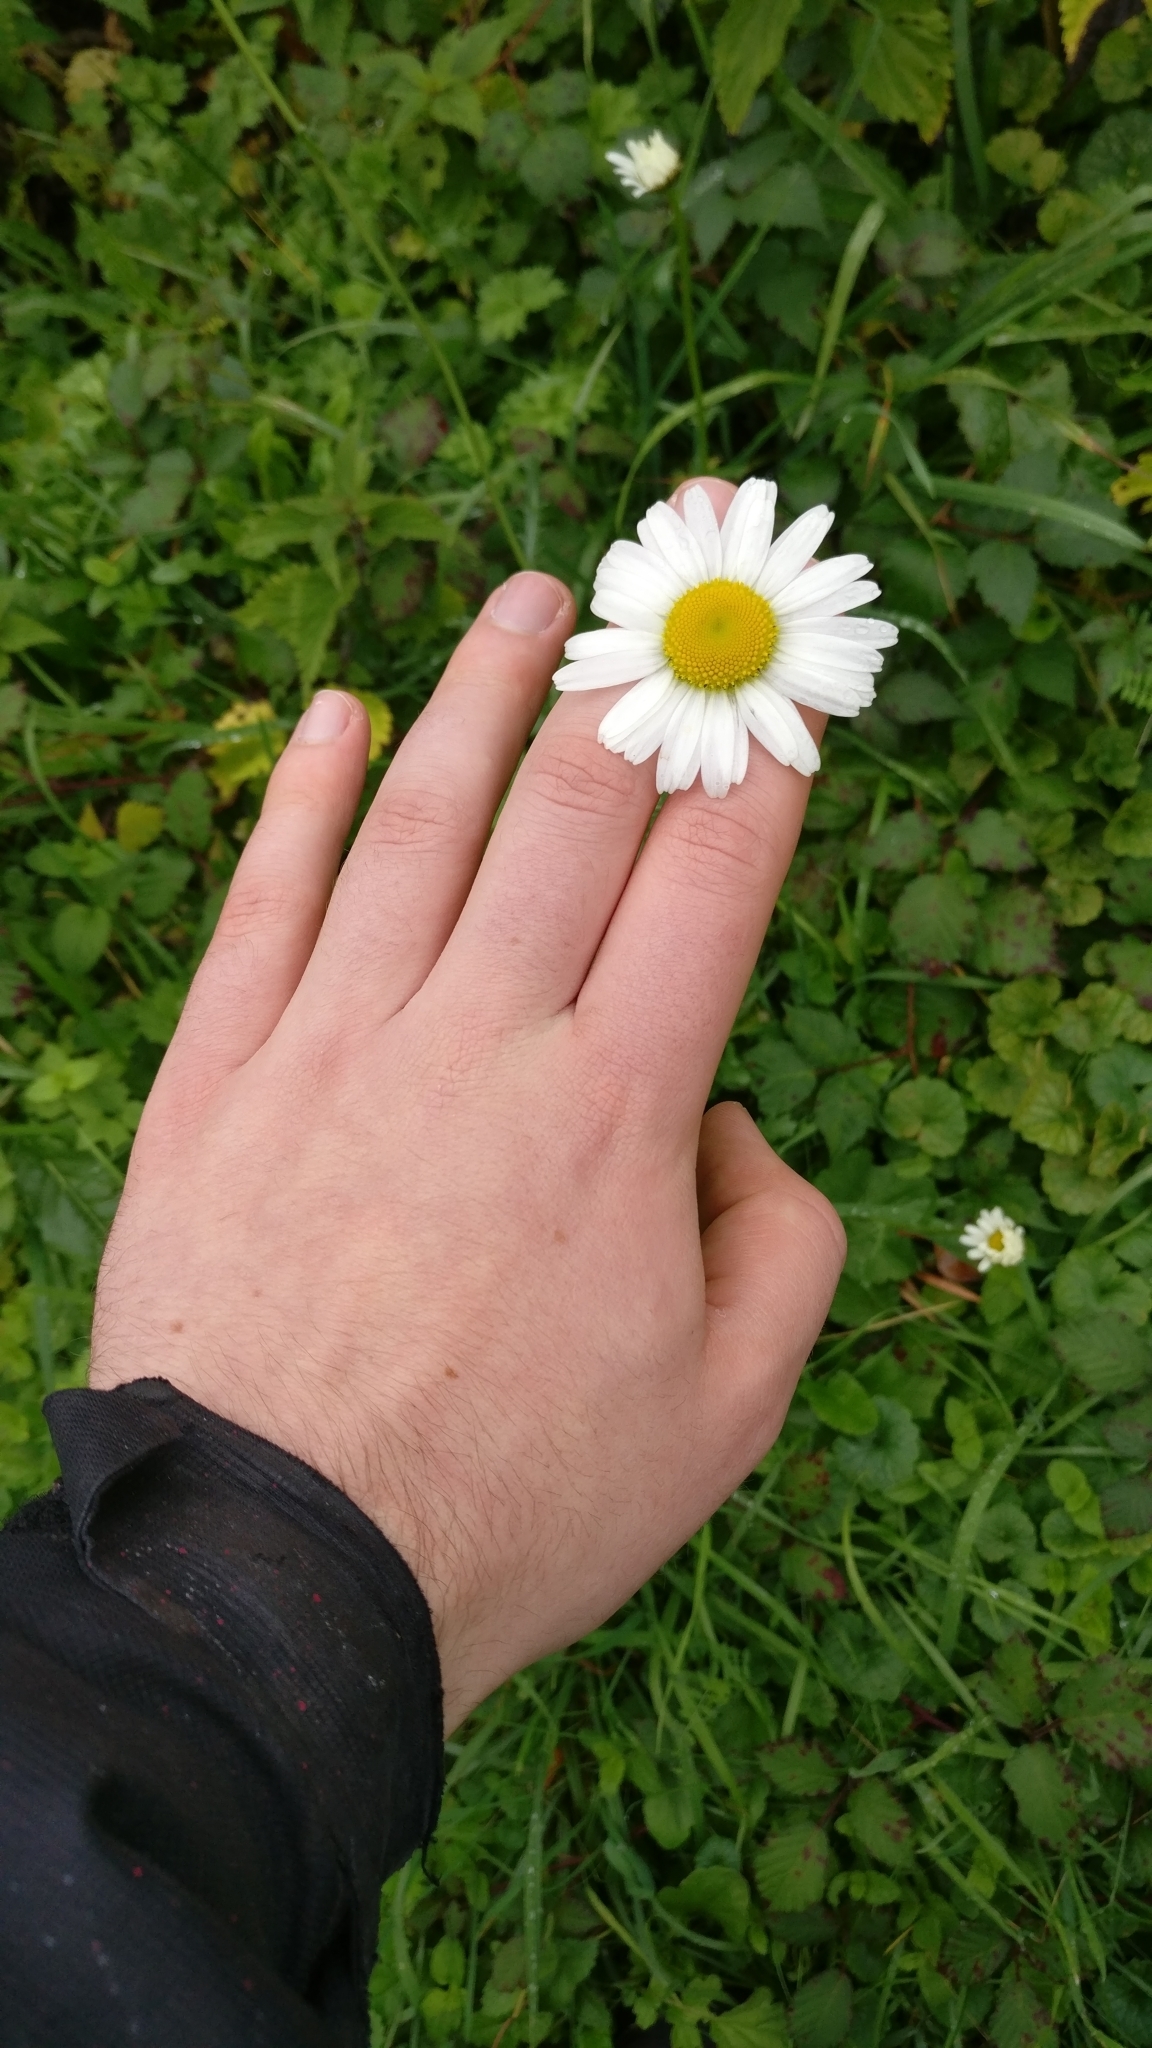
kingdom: Plantae
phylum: Tracheophyta
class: Magnoliopsida
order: Asterales
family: Asteraceae
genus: Leucanthemum
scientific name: Leucanthemum vulgare
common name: Oxeye daisy
